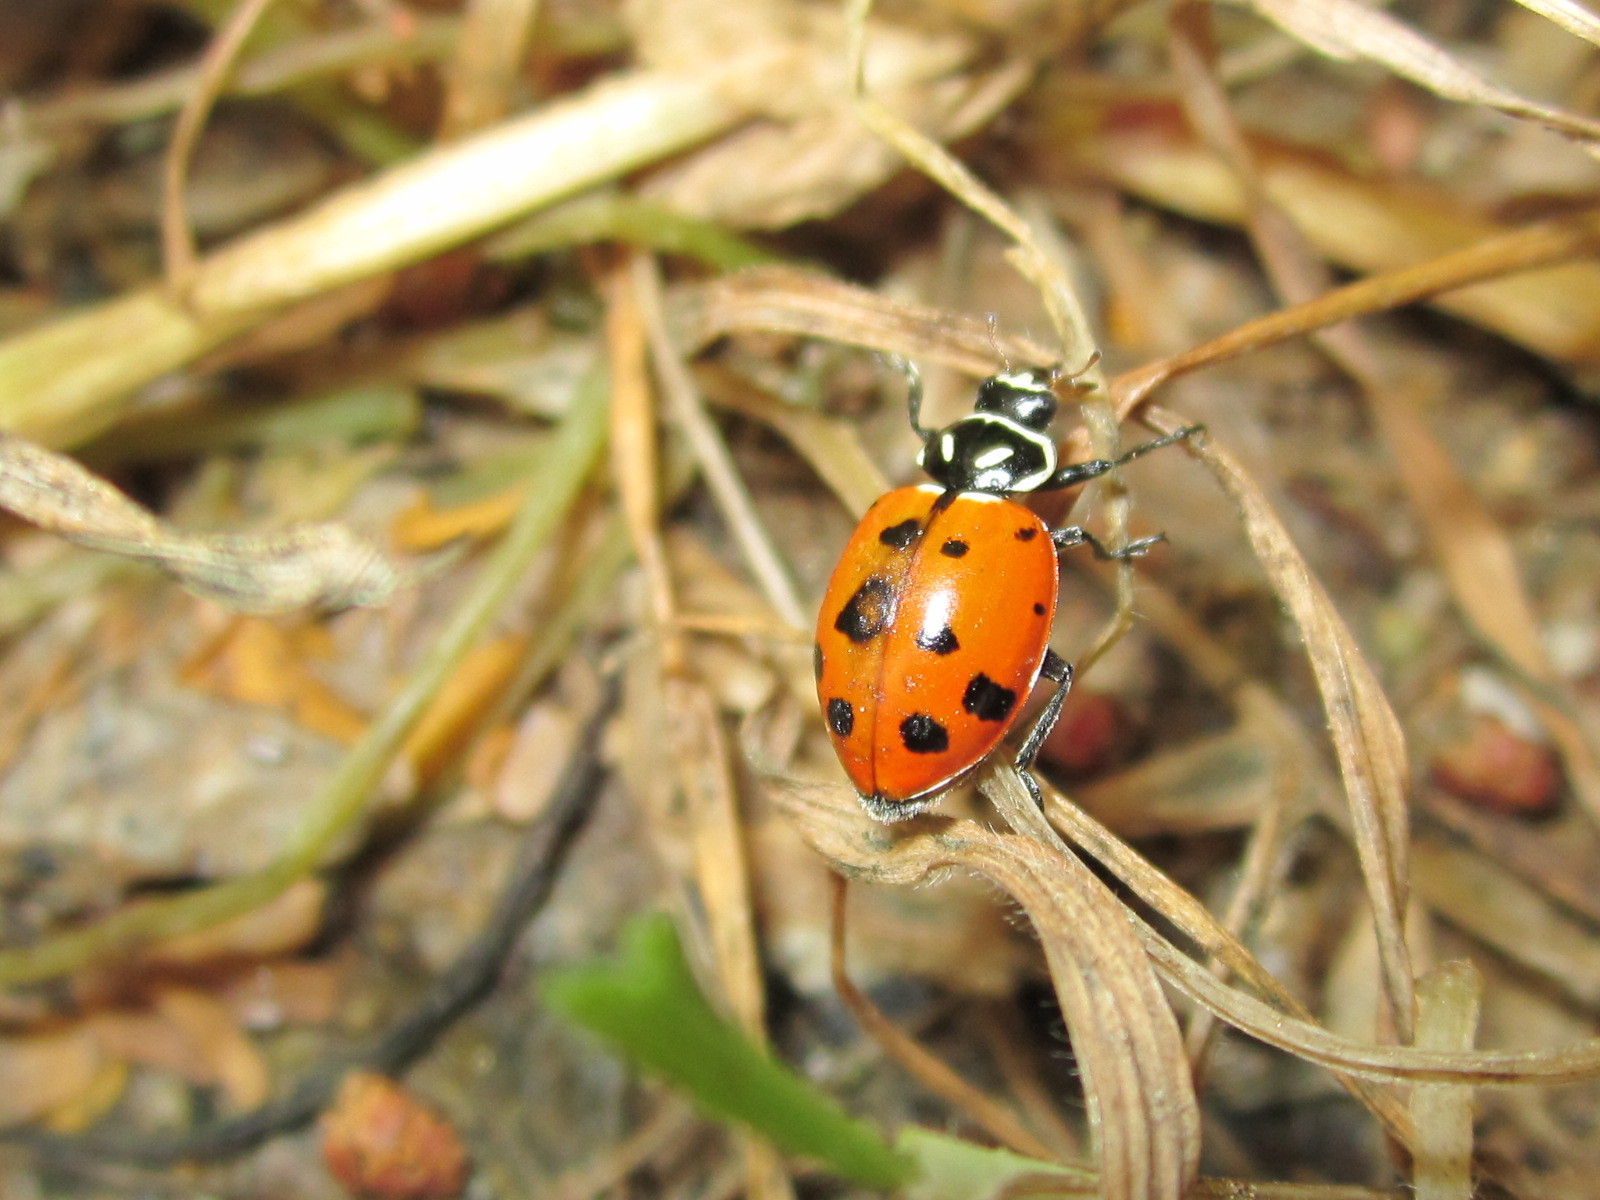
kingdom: Animalia
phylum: Arthropoda
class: Insecta
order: Coleoptera
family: Coccinellidae
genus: Hippodamia
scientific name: Hippodamia convergens
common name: Convergent lady beetle
